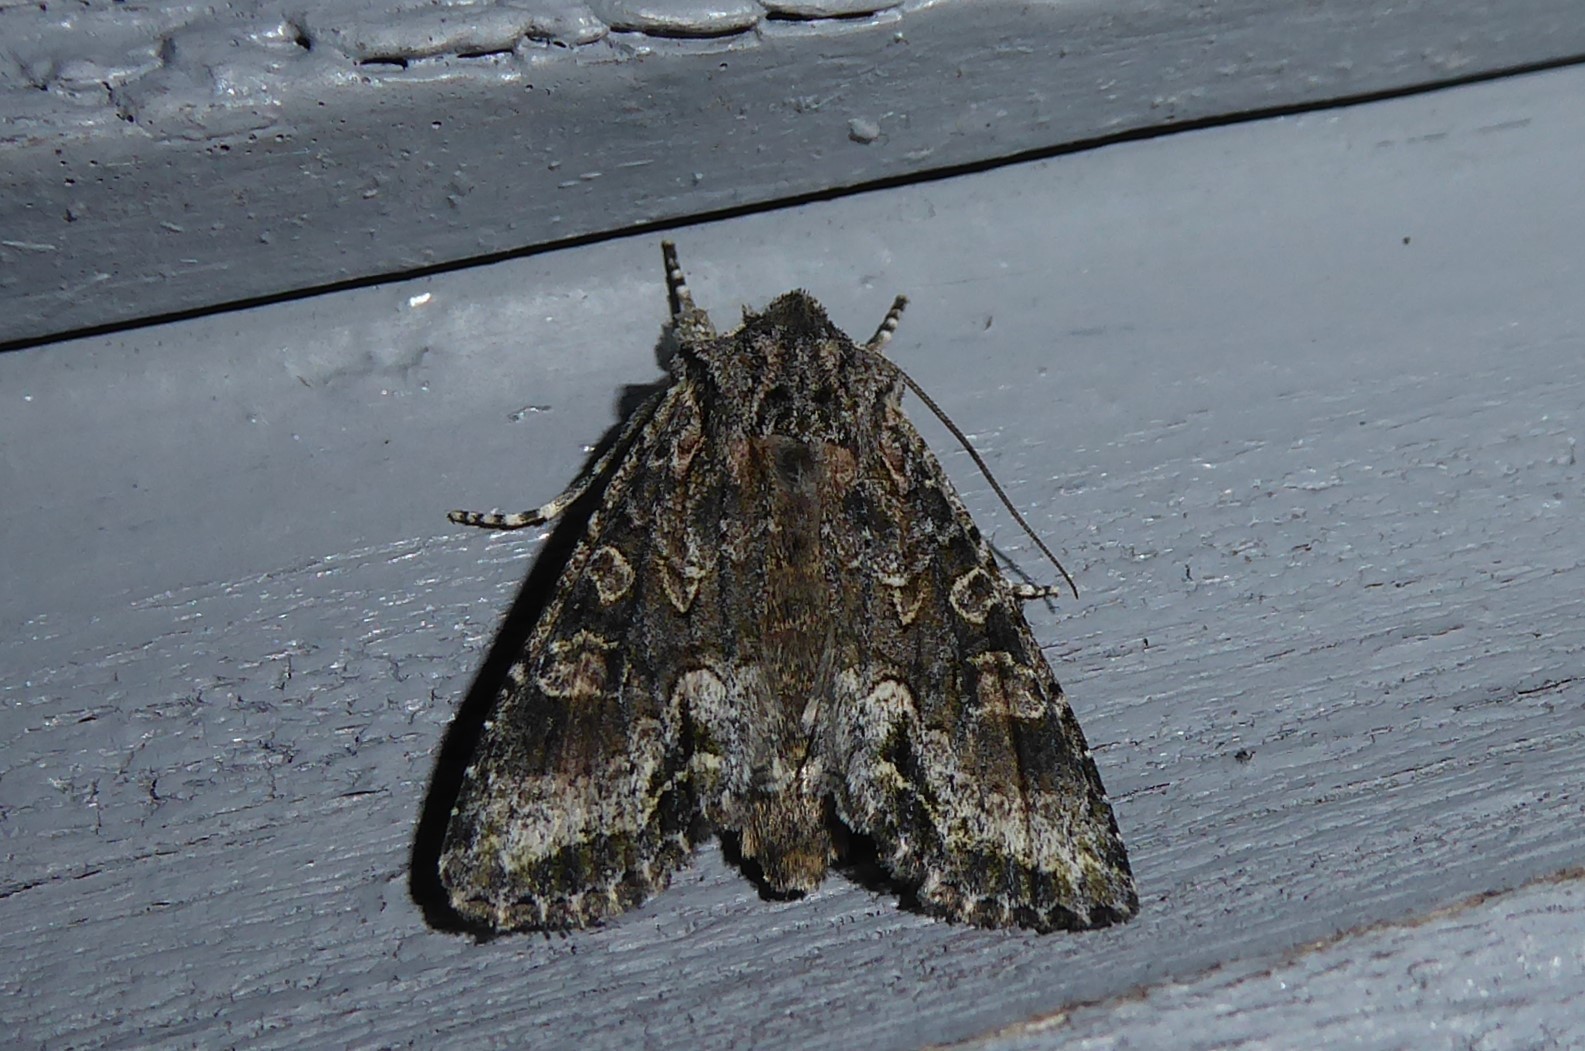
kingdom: Animalia
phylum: Arthropoda
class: Insecta
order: Lepidoptera
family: Noctuidae
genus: Ichneutica
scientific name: Ichneutica mutans
